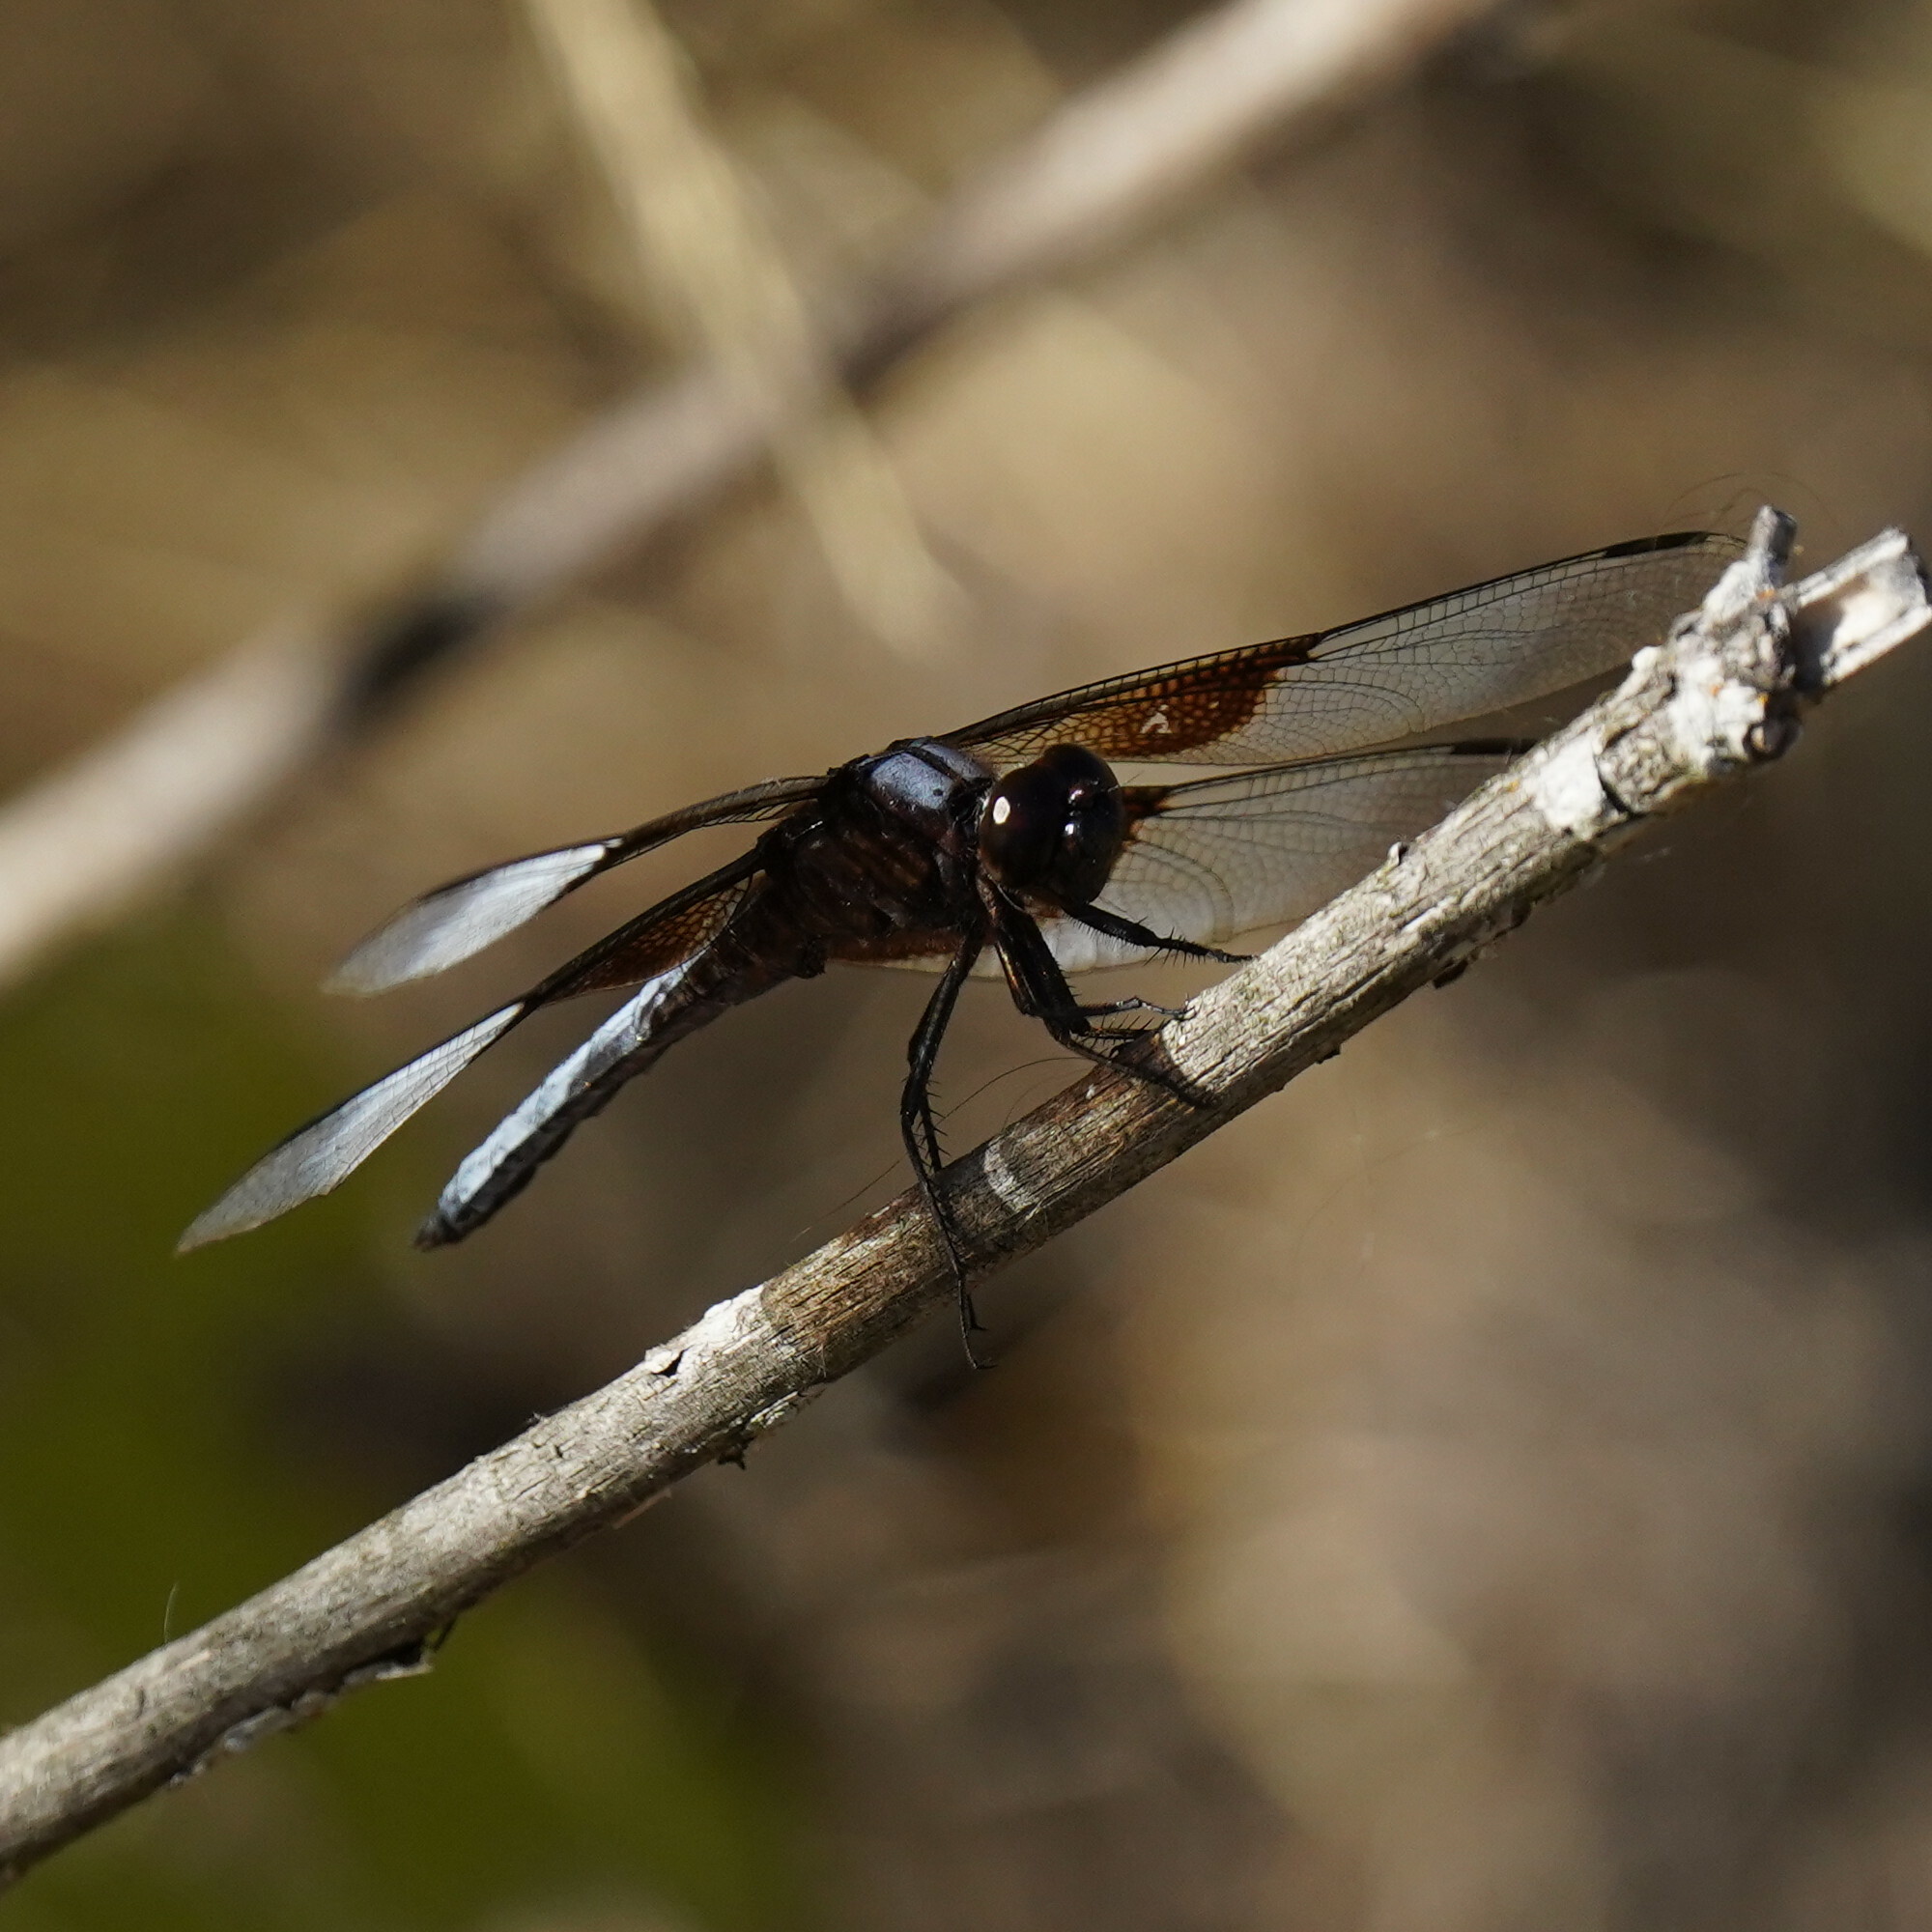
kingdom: Animalia
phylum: Arthropoda
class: Insecta
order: Odonata
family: Libellulidae
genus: Libellula
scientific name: Libellula luctuosa
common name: Widow skimmer
